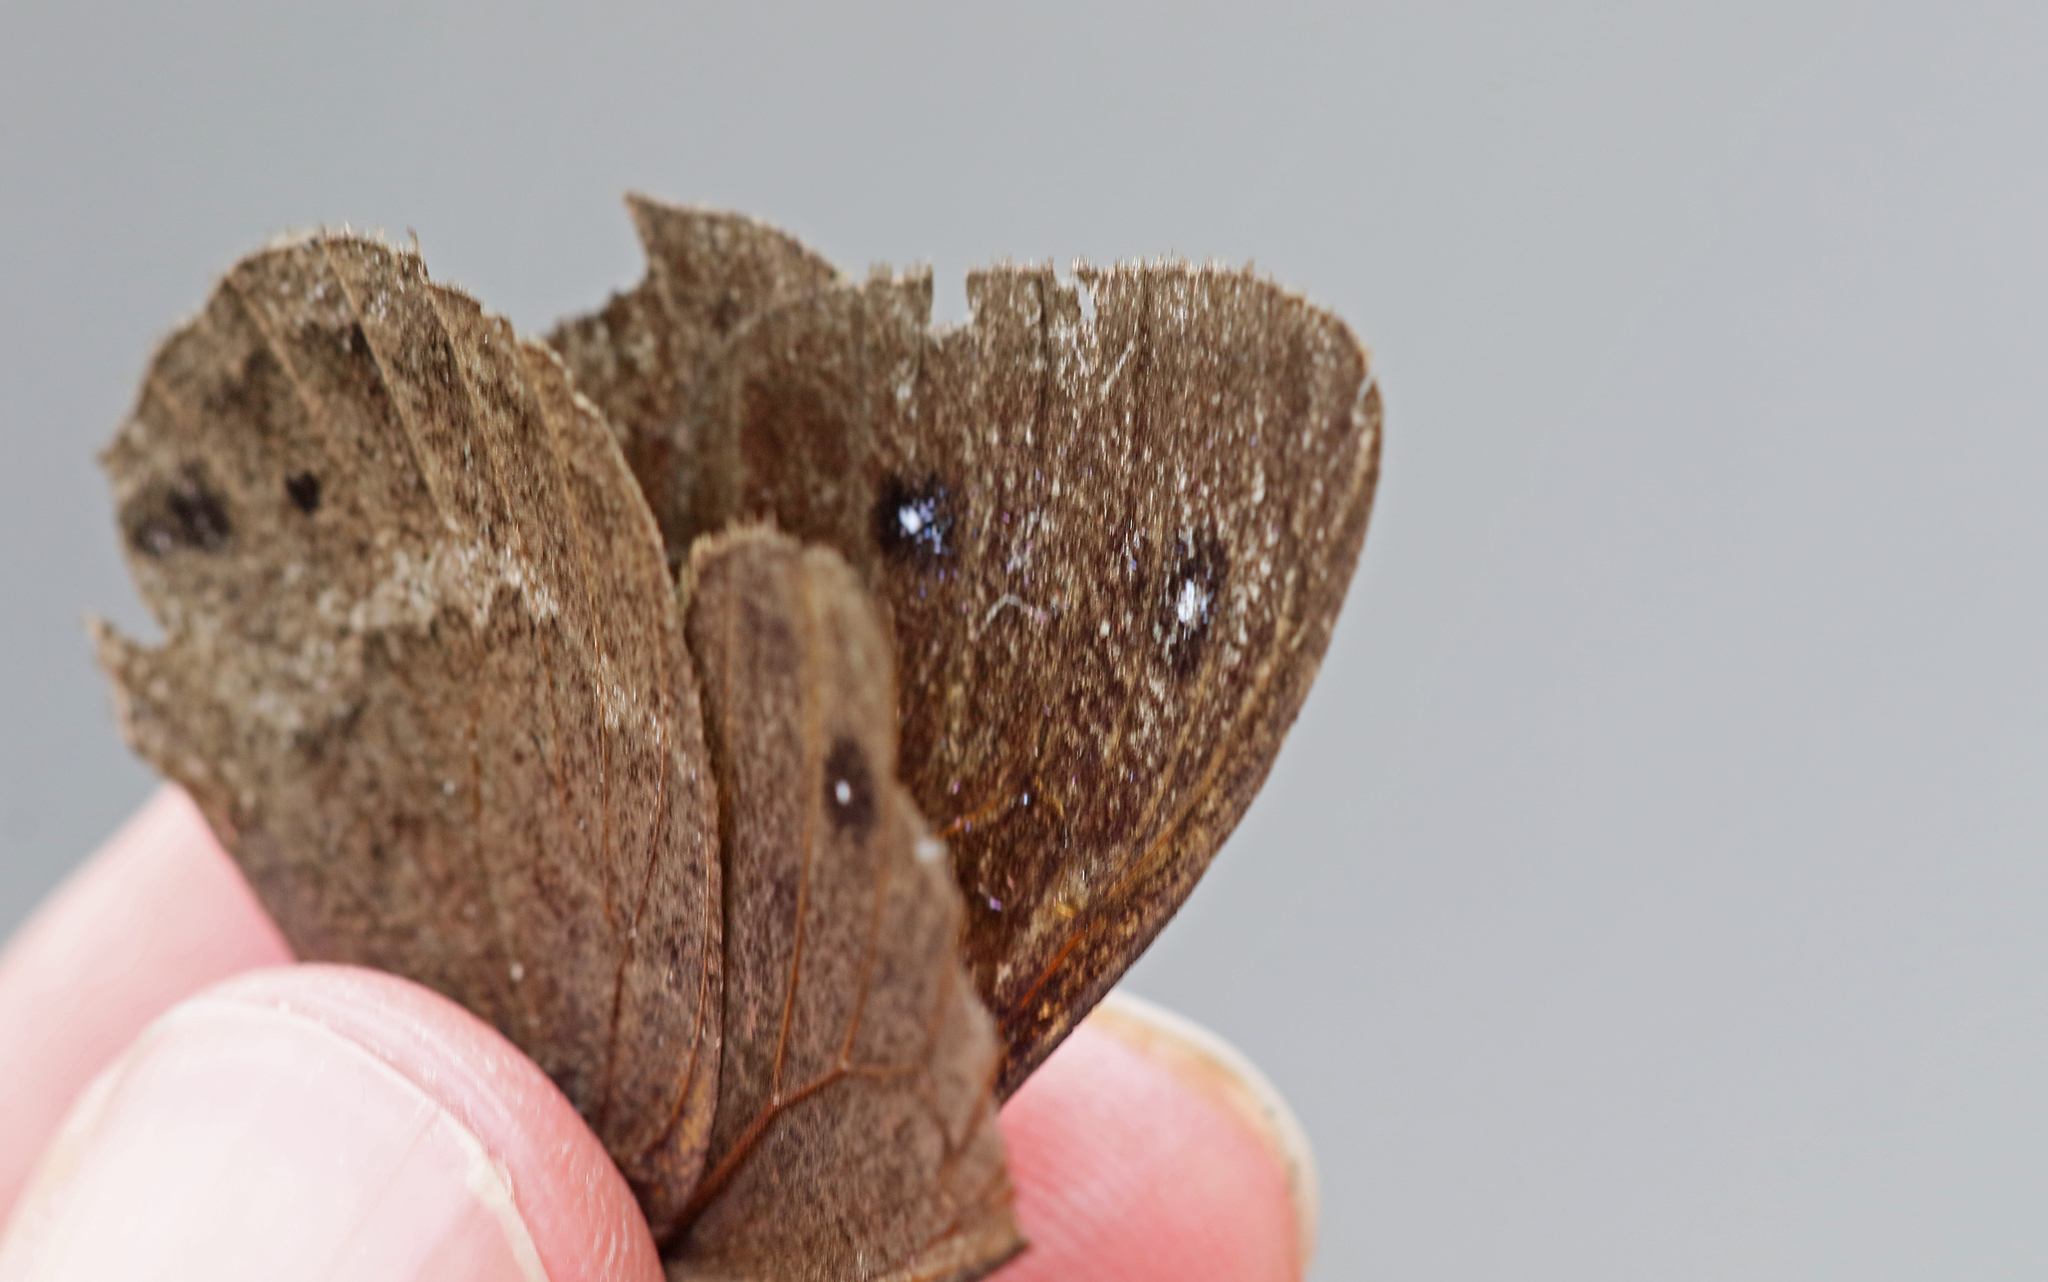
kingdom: Animalia
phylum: Arthropoda
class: Insecta
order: Lepidoptera
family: Nymphalidae
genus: Satyrus
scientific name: Satyrus ferula
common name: Great sooty satyr
